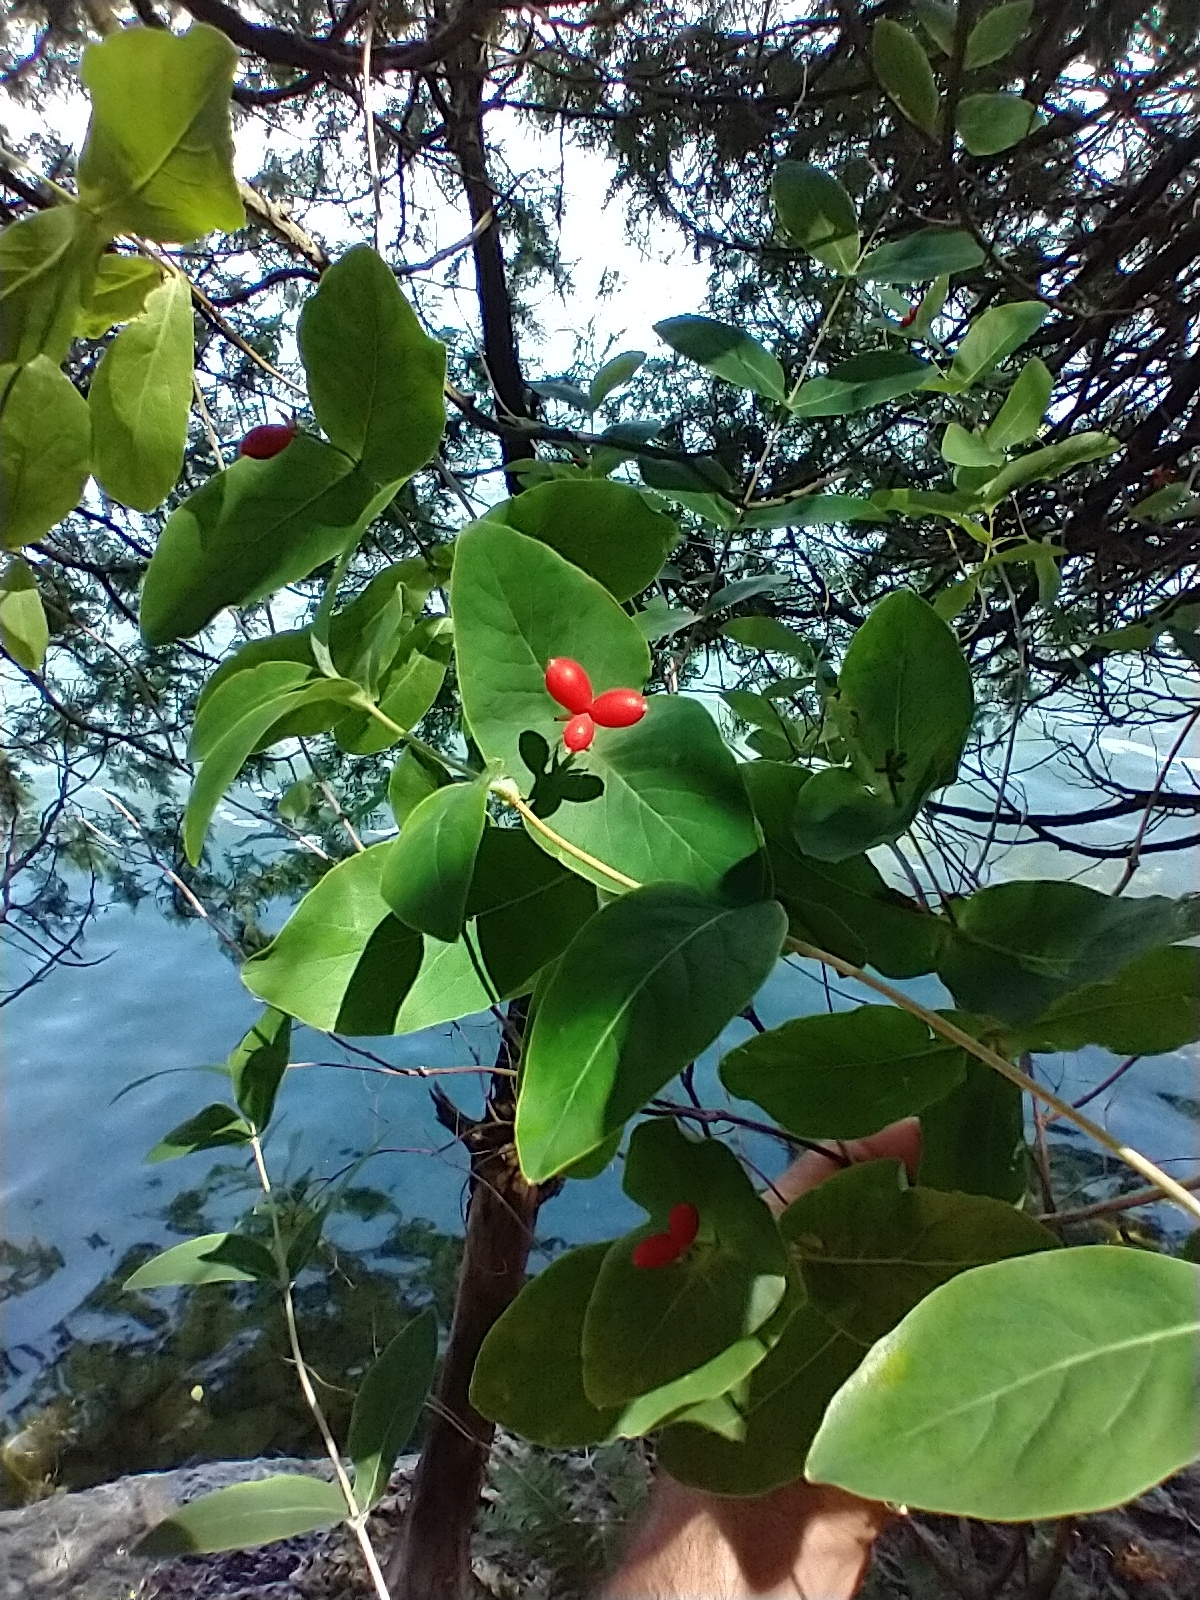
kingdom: Plantae
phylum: Tracheophyta
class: Magnoliopsida
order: Dipsacales
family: Caprifoliaceae
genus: Lonicera
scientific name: Lonicera dioica
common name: Limber honeysuckle
